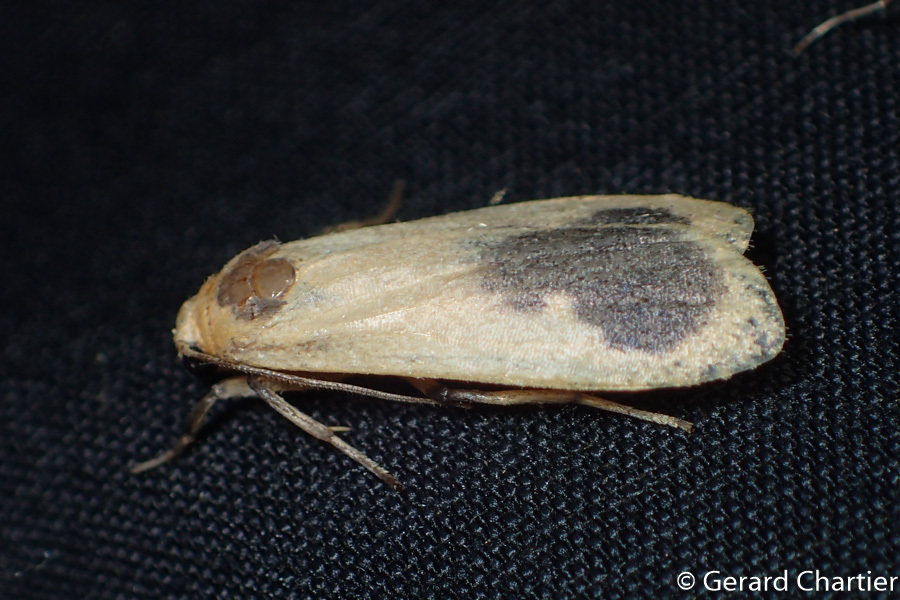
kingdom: Animalia
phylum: Arthropoda
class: Insecta
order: Lepidoptera
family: Erebidae
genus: Brunia
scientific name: Brunia gibonica
